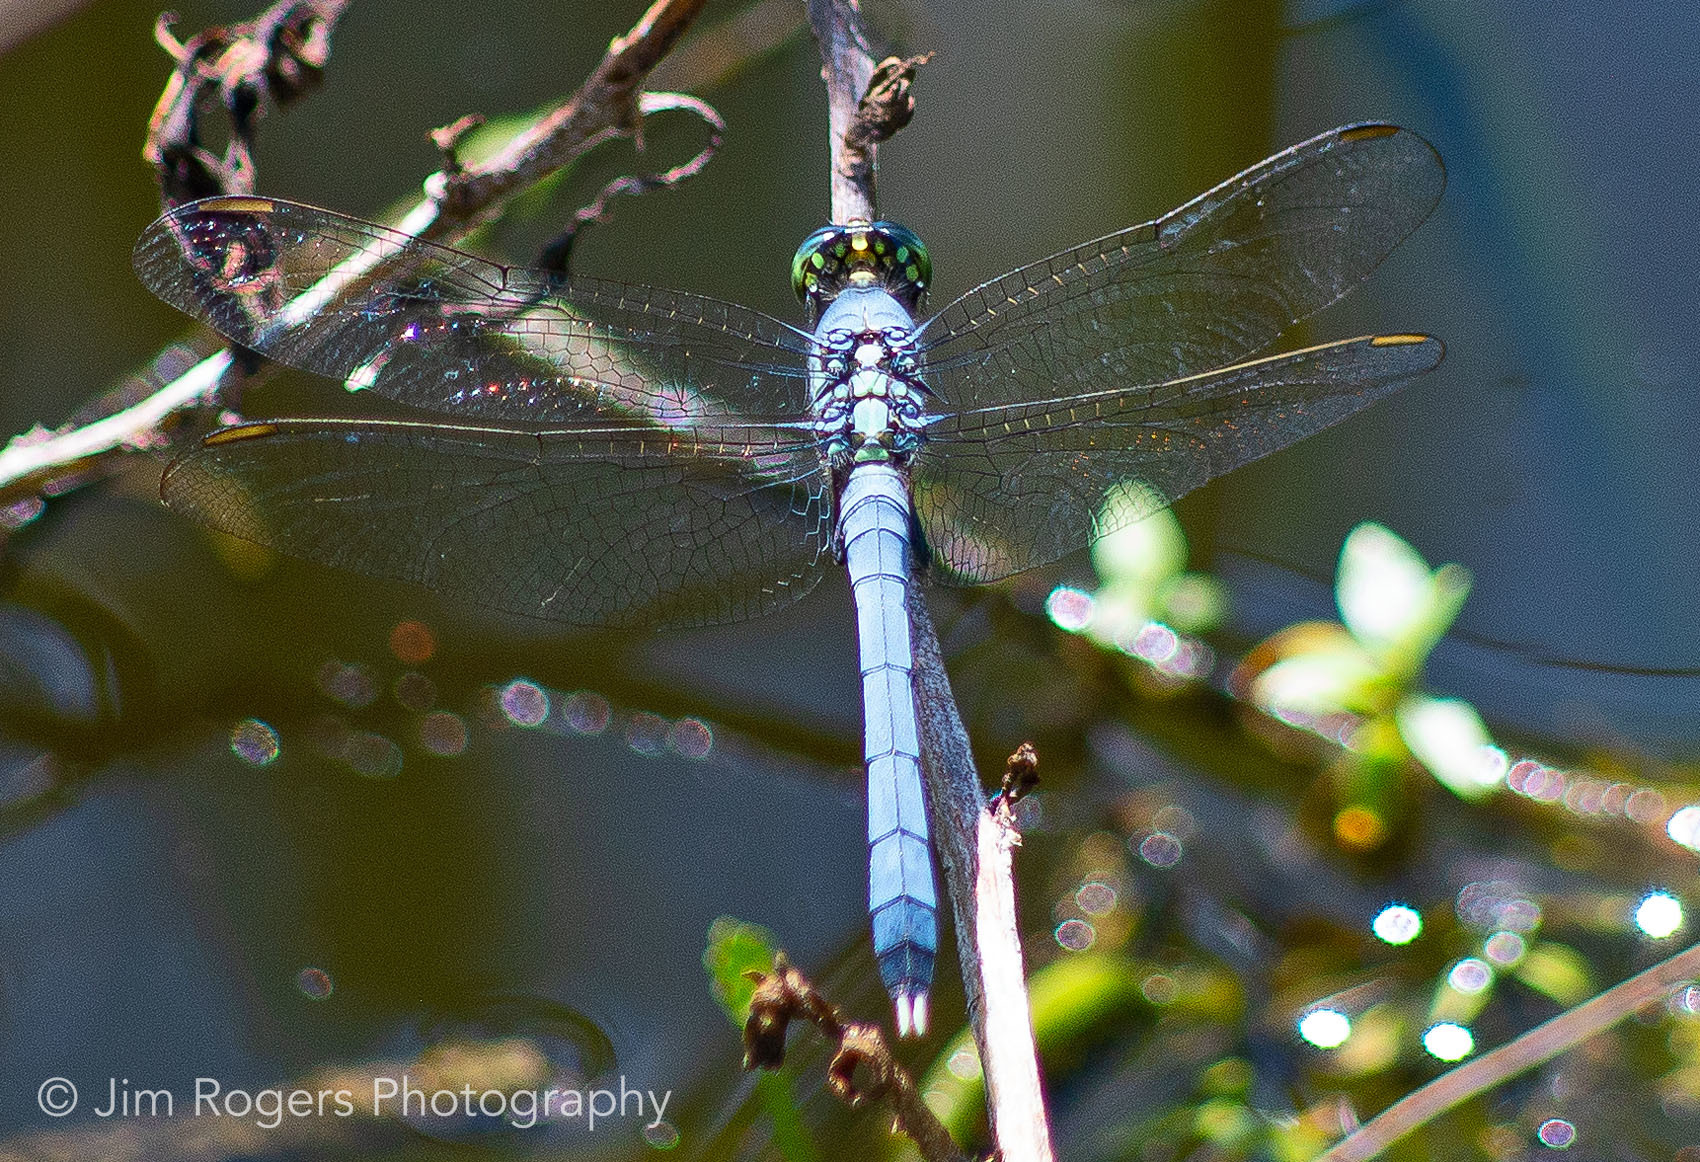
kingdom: Animalia
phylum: Arthropoda
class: Insecta
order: Odonata
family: Libellulidae
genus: Erythemis
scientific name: Erythemis simplicicollis
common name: Eastern pondhawk
